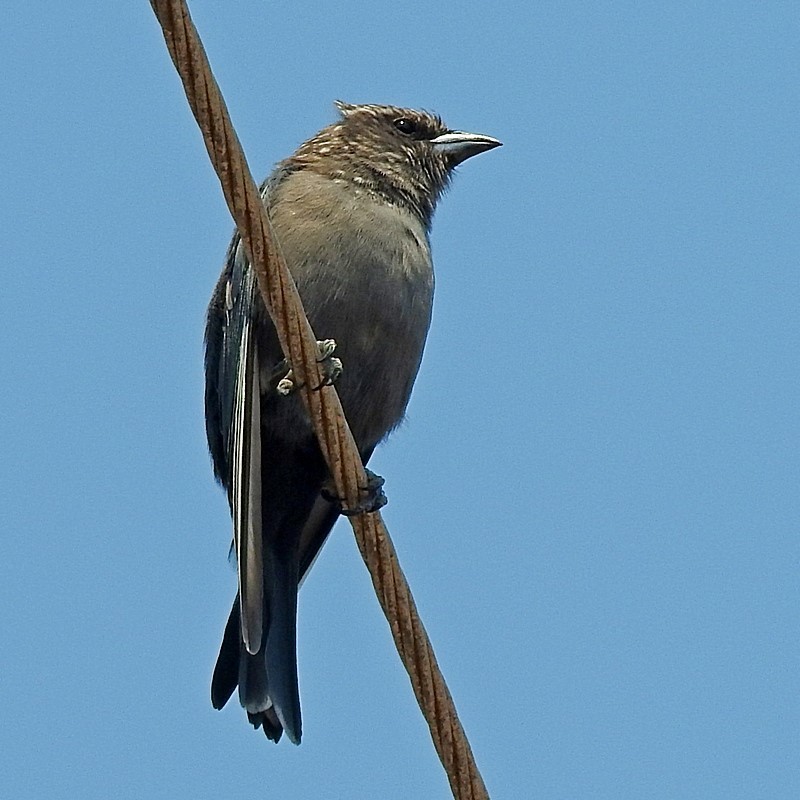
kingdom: Animalia
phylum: Chordata
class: Aves
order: Passeriformes
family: Artamidae
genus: Artamus
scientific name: Artamus cyanopterus
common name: Dusky woodswallow
